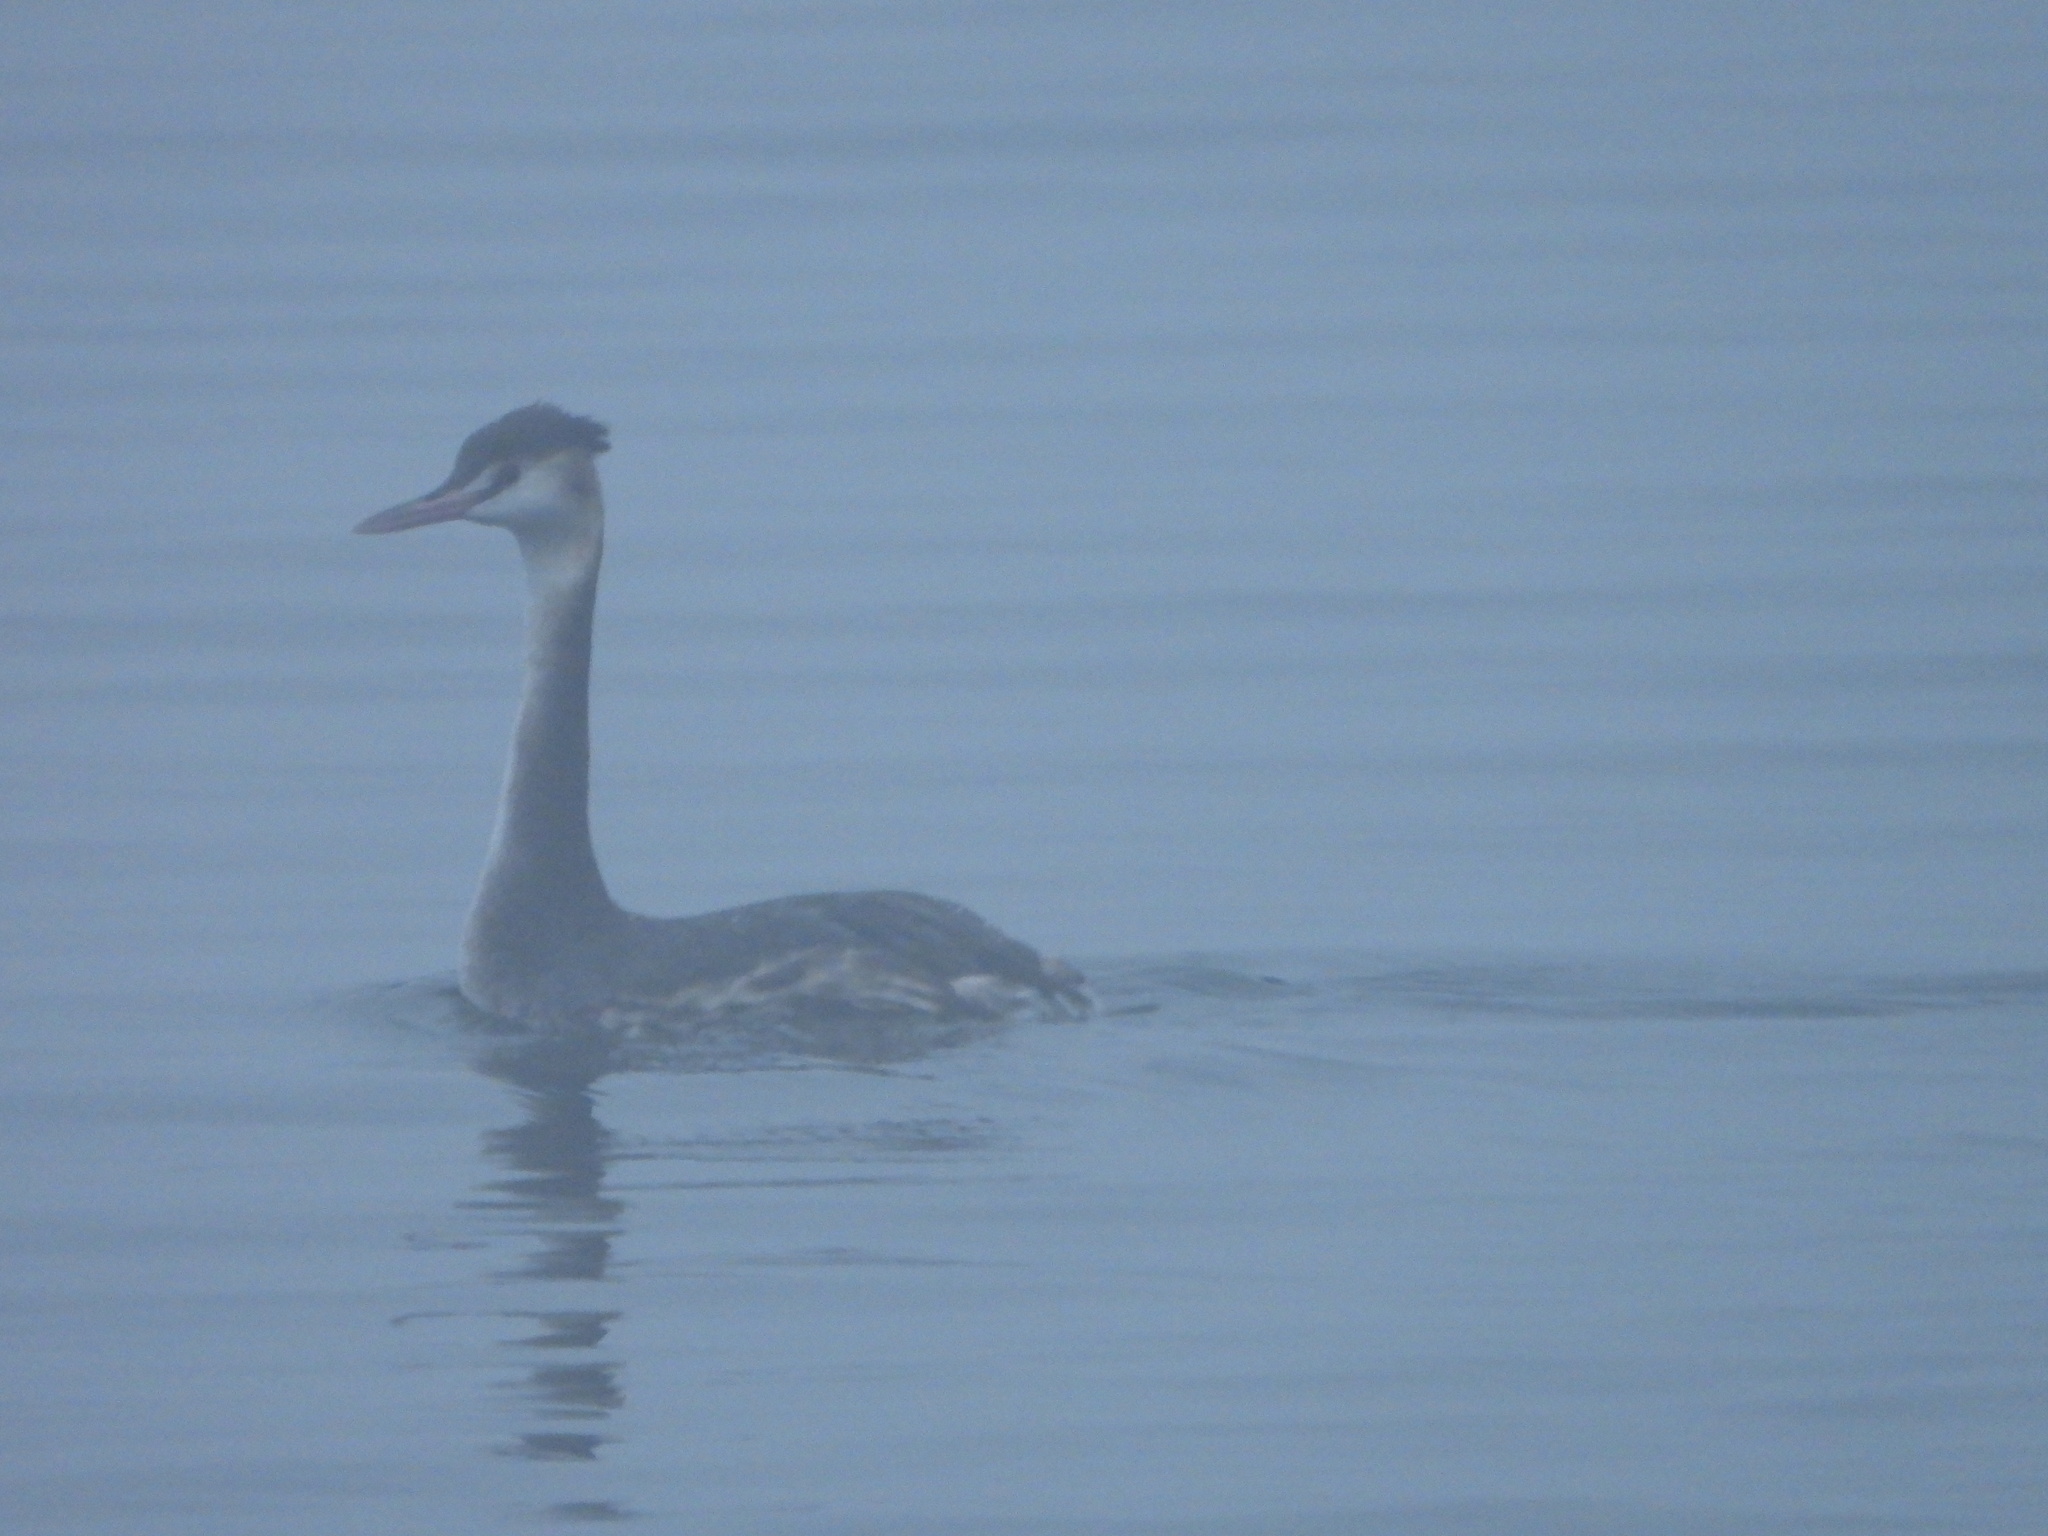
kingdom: Animalia
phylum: Chordata
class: Aves
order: Podicipediformes
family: Podicipedidae
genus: Podiceps
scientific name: Podiceps cristatus
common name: Great crested grebe
